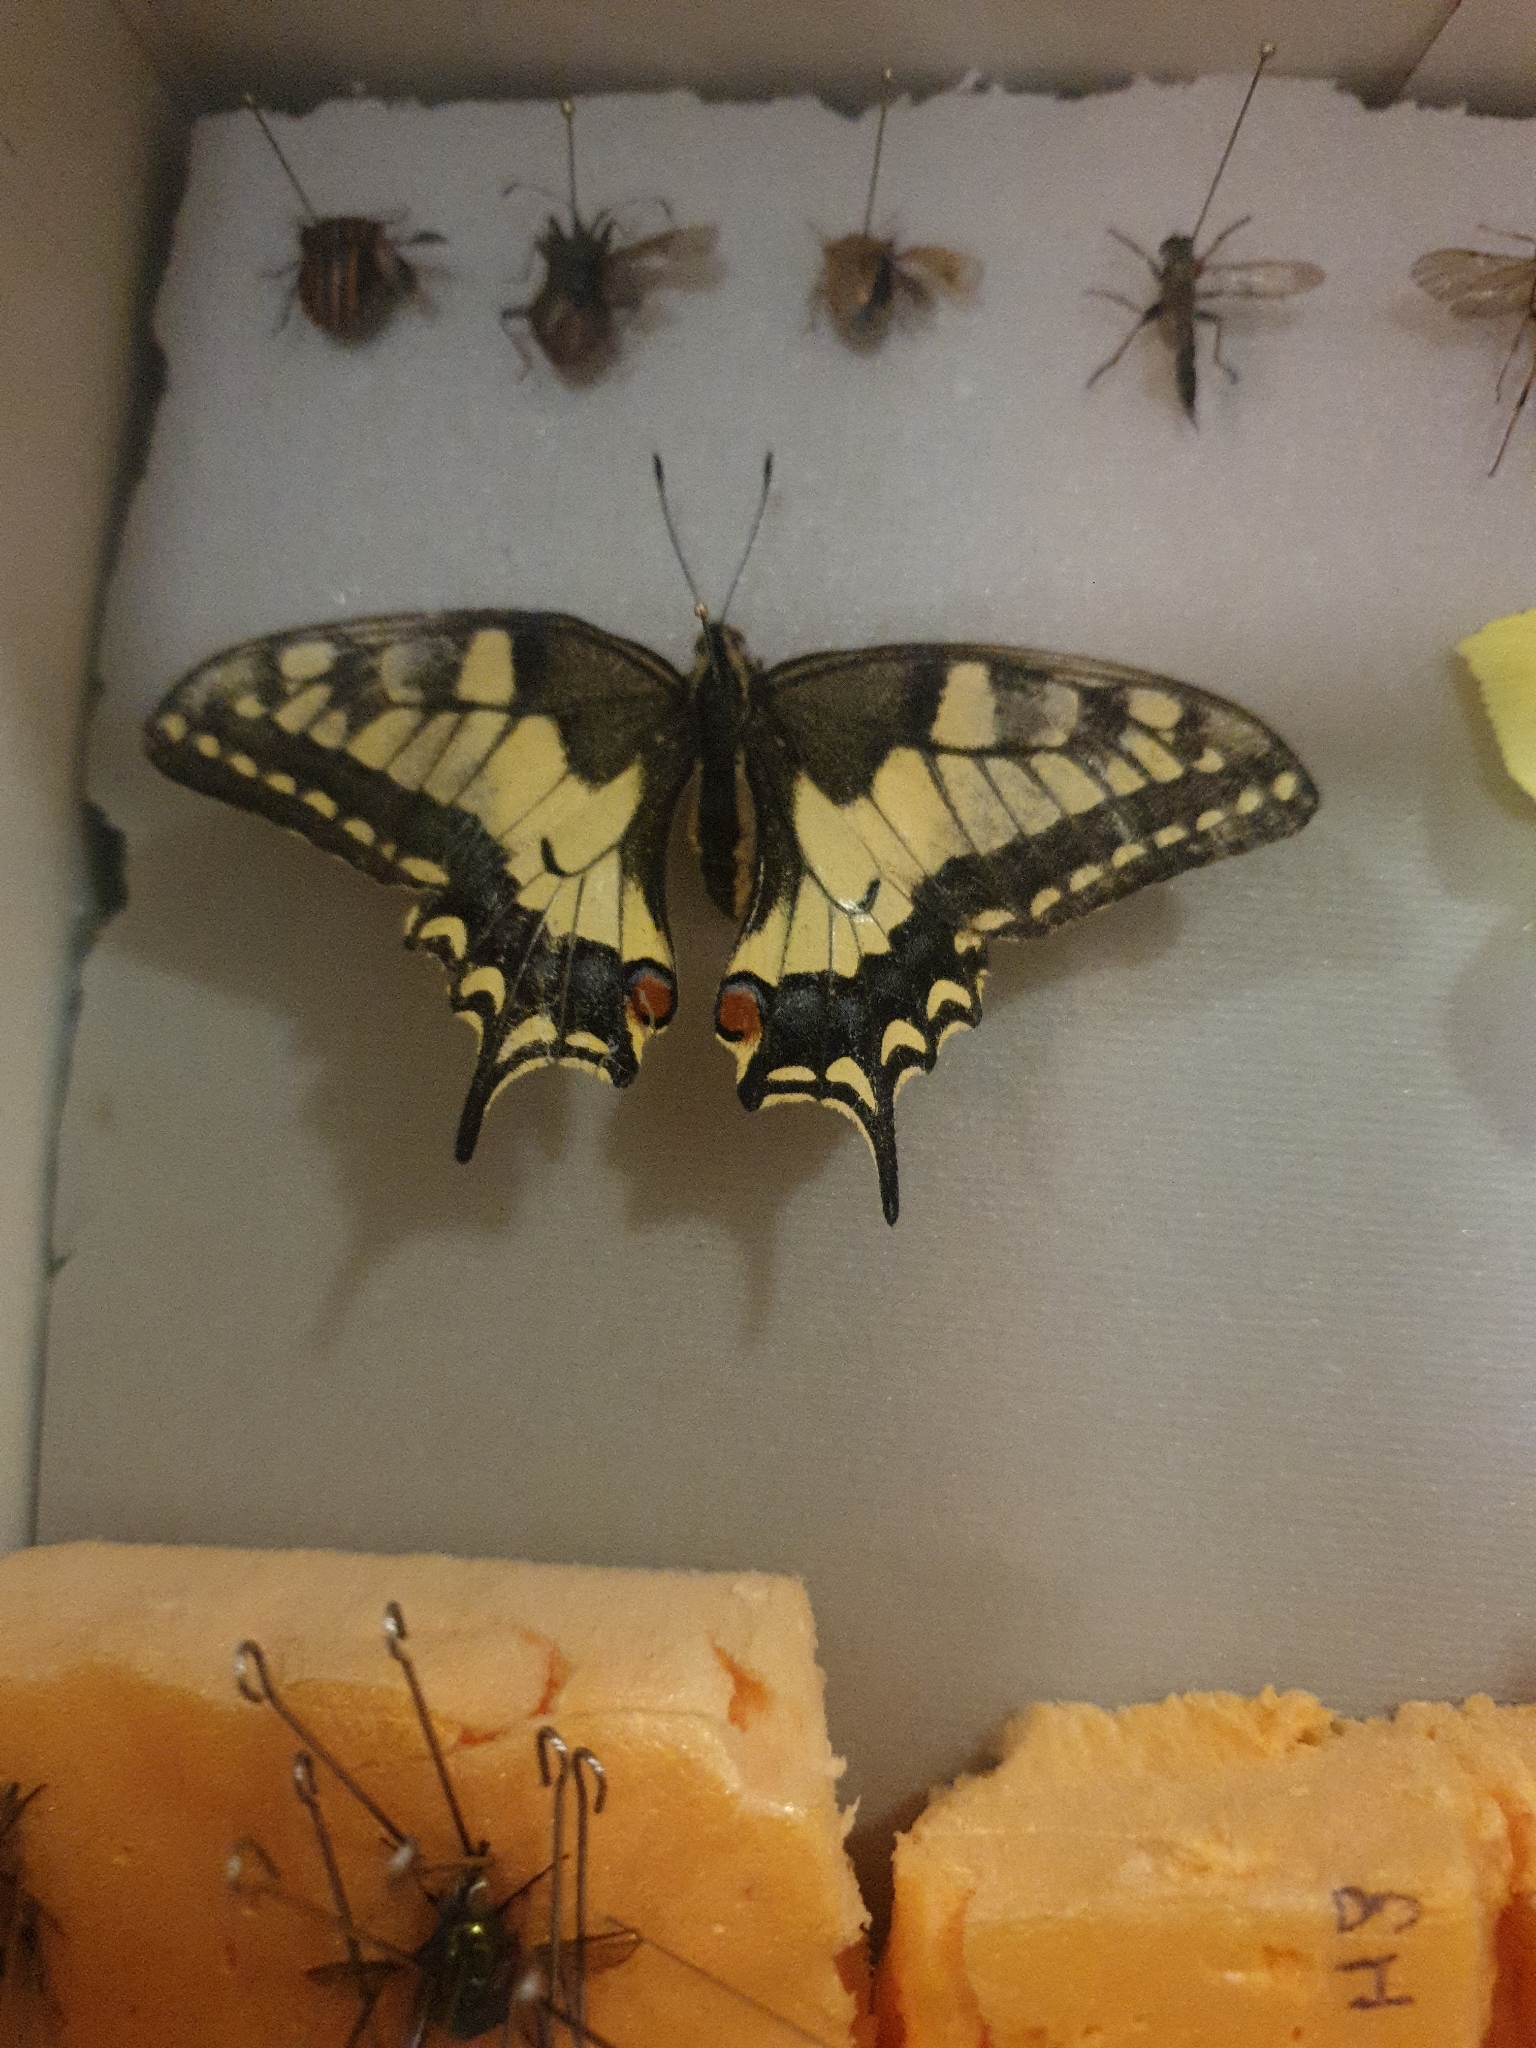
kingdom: Animalia
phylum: Arthropoda
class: Insecta
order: Lepidoptera
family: Papilionidae
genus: Papilio
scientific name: Papilio machaon
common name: Swallowtail
